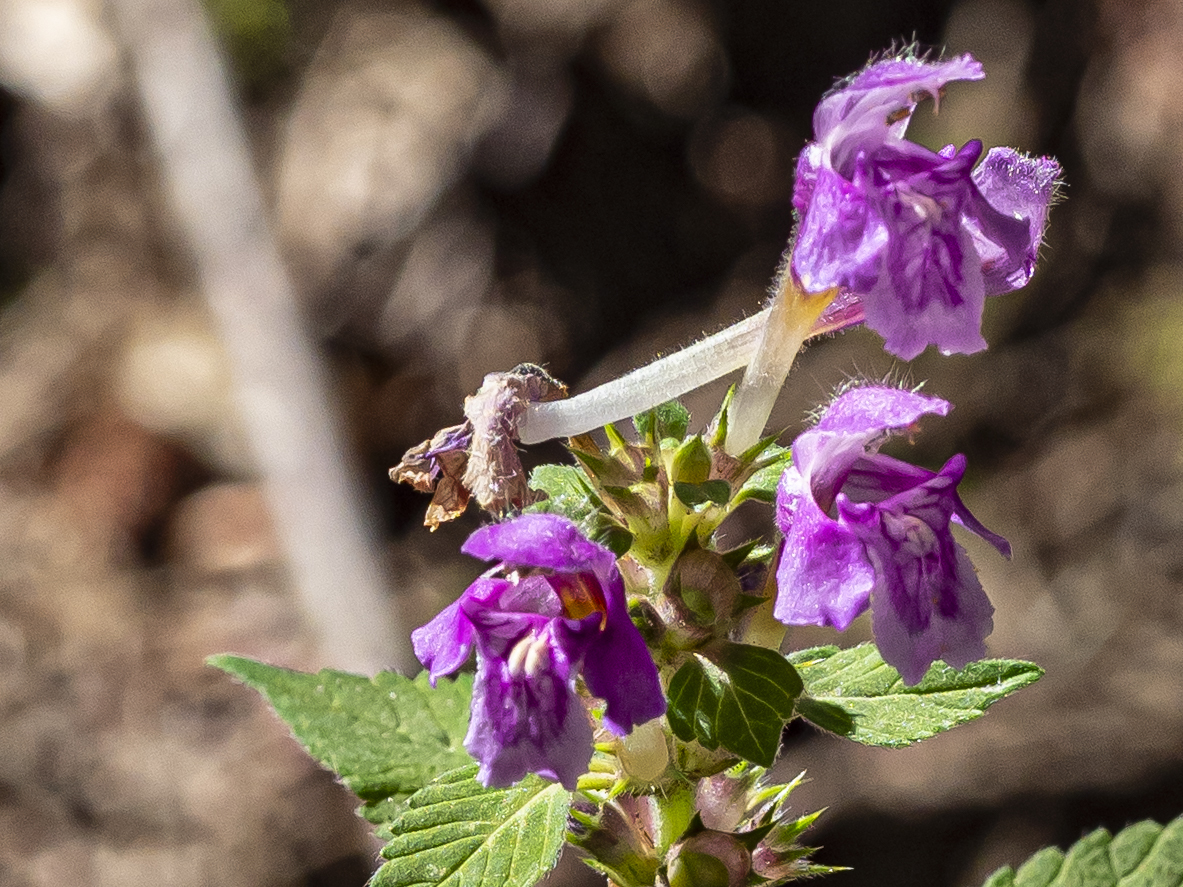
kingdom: Plantae
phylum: Tracheophyta
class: Magnoliopsida
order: Lamiales
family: Lamiaceae
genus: Galeopsis
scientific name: Galeopsis pubescens
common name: Downy hemp-nettle
